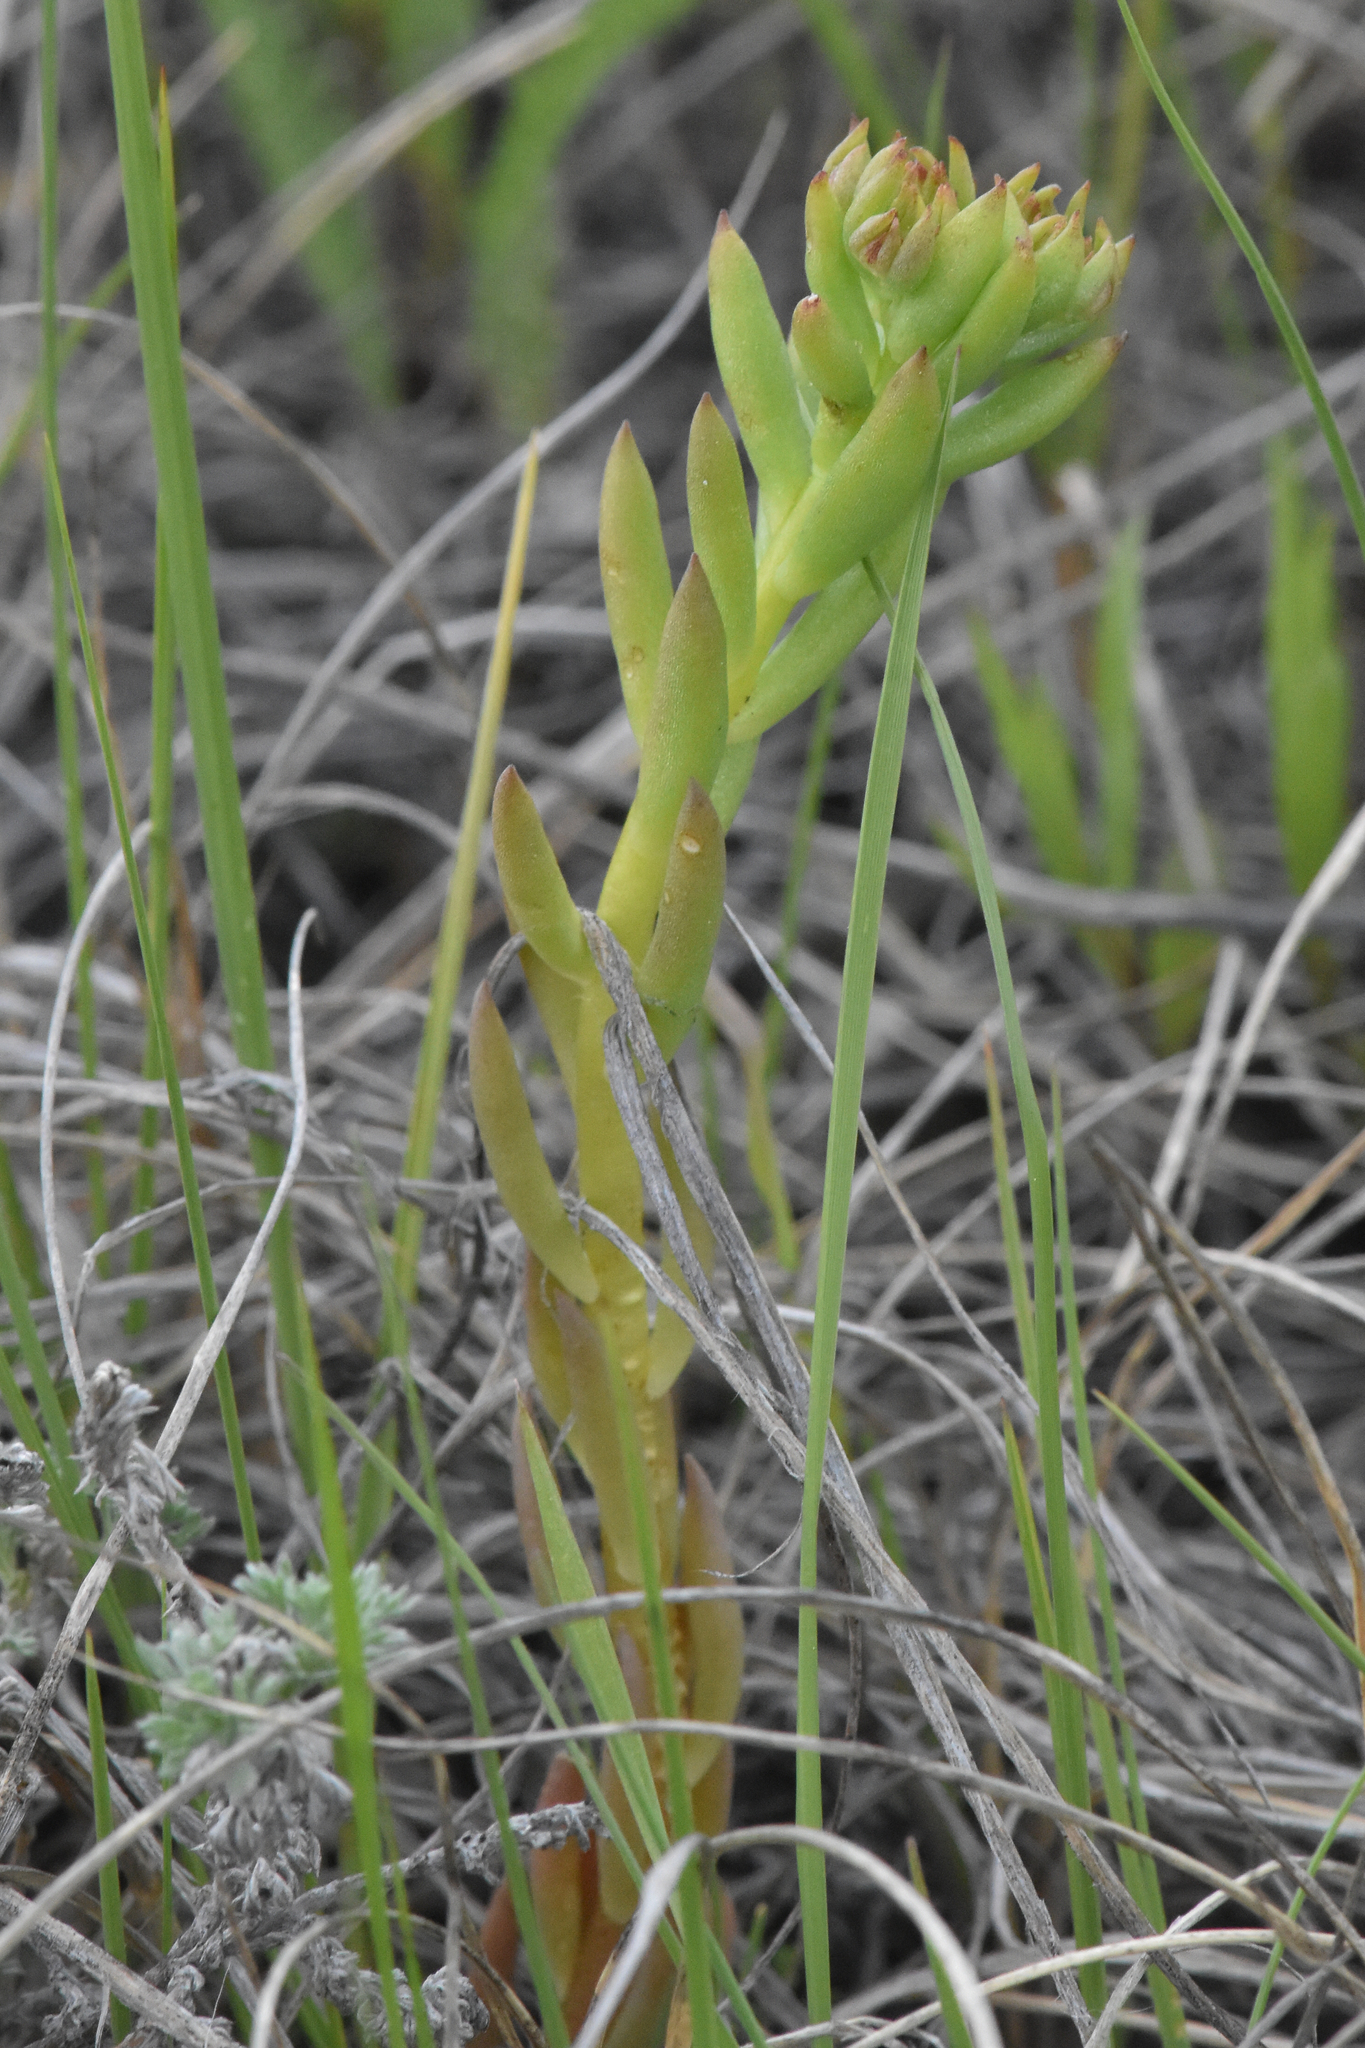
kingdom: Plantae
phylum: Tracheophyta
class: Magnoliopsida
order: Saxifragales
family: Crassulaceae
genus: Sedum
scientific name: Sedum lanceolatum
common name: Common stonecrop
